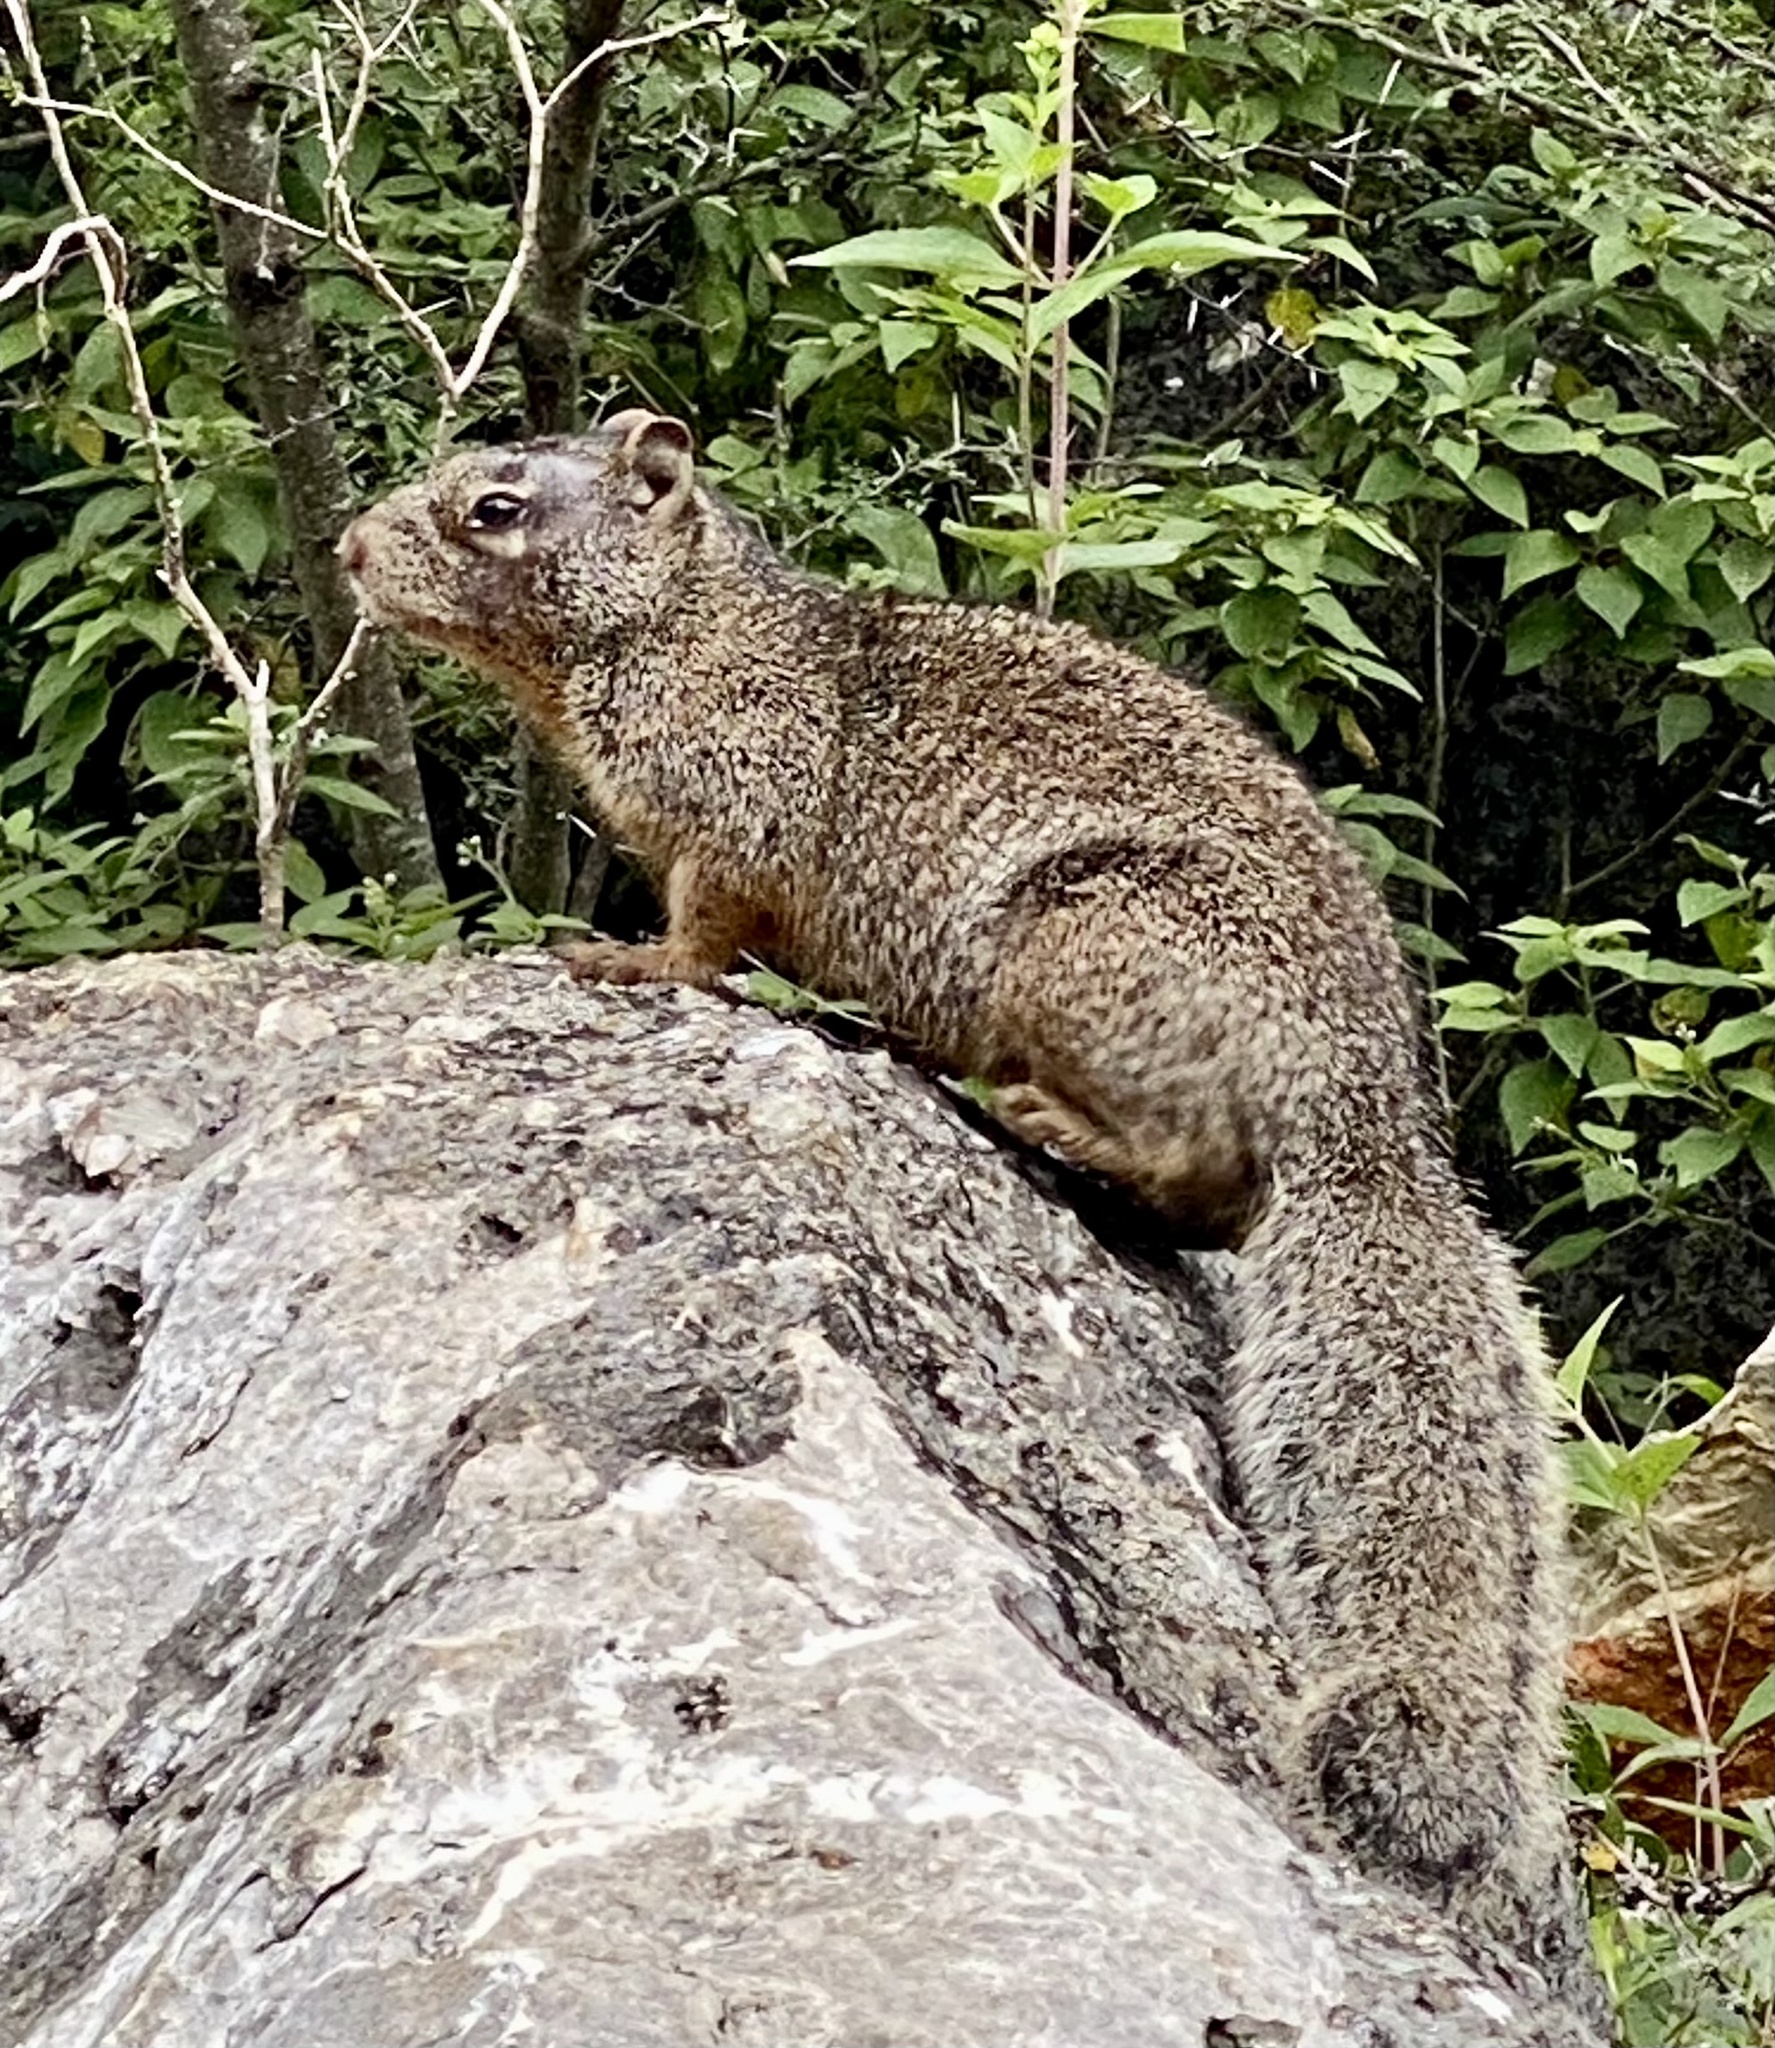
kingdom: Animalia
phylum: Chordata
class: Mammalia
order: Rodentia
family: Sciuridae
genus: Otospermophilus
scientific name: Otospermophilus variegatus
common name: Rock squirrel
